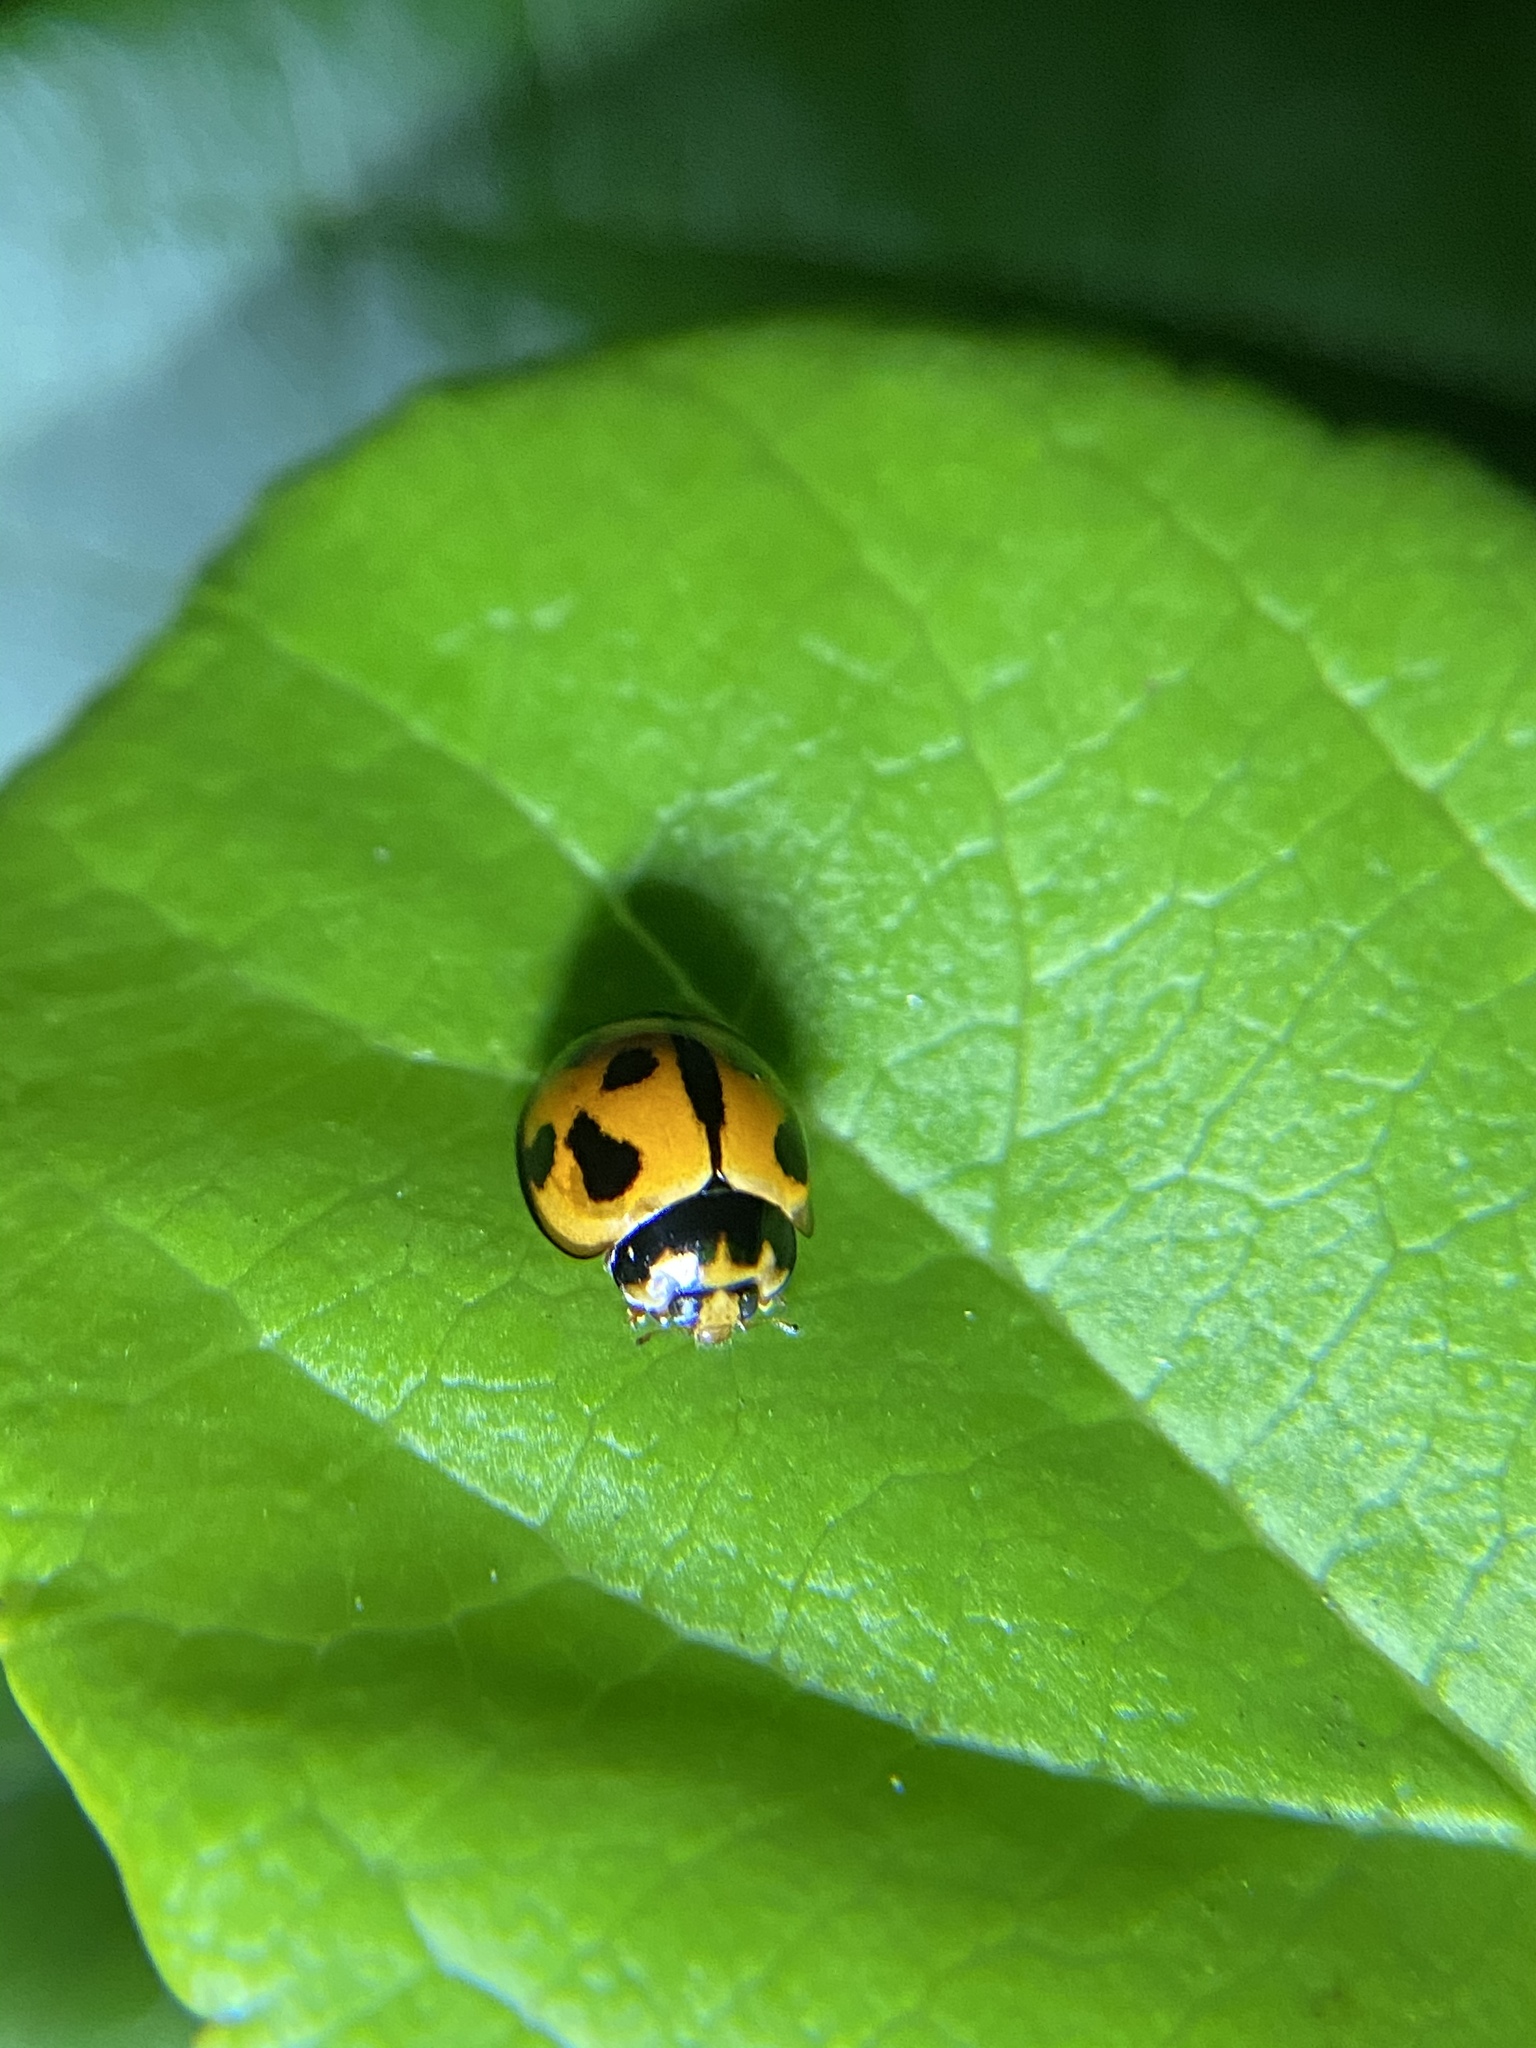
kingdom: Animalia
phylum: Arthropoda
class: Insecta
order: Coleoptera
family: Coccinellidae
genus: Coelophora
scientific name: Coelophora inaequalis
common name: Common australian lady beetle
